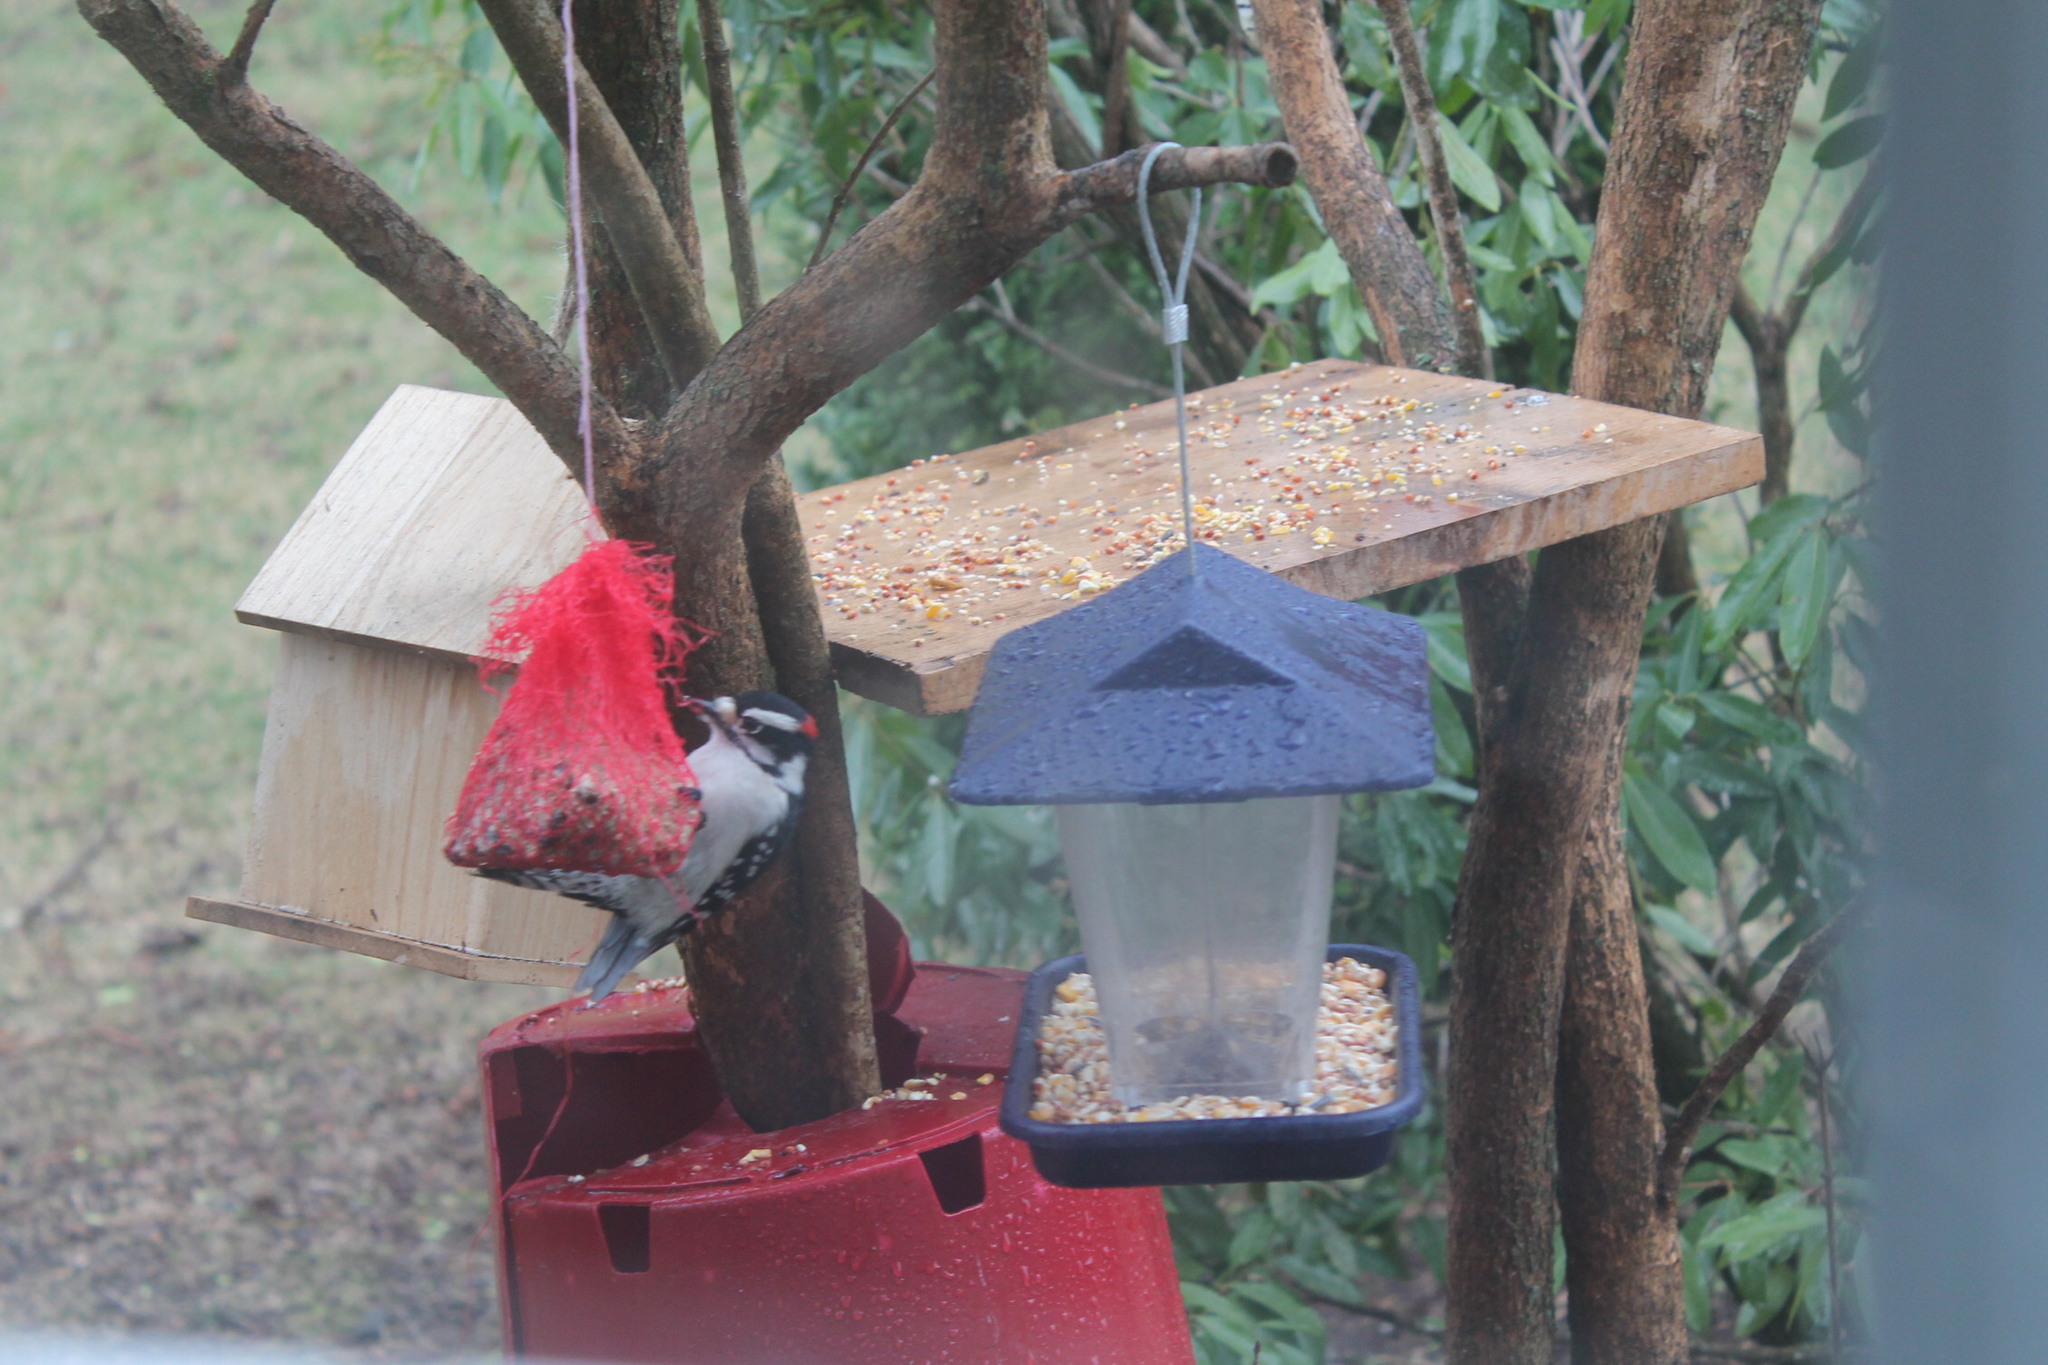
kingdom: Animalia
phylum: Chordata
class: Aves
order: Piciformes
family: Picidae
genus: Dryobates
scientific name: Dryobates pubescens
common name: Downy woodpecker
